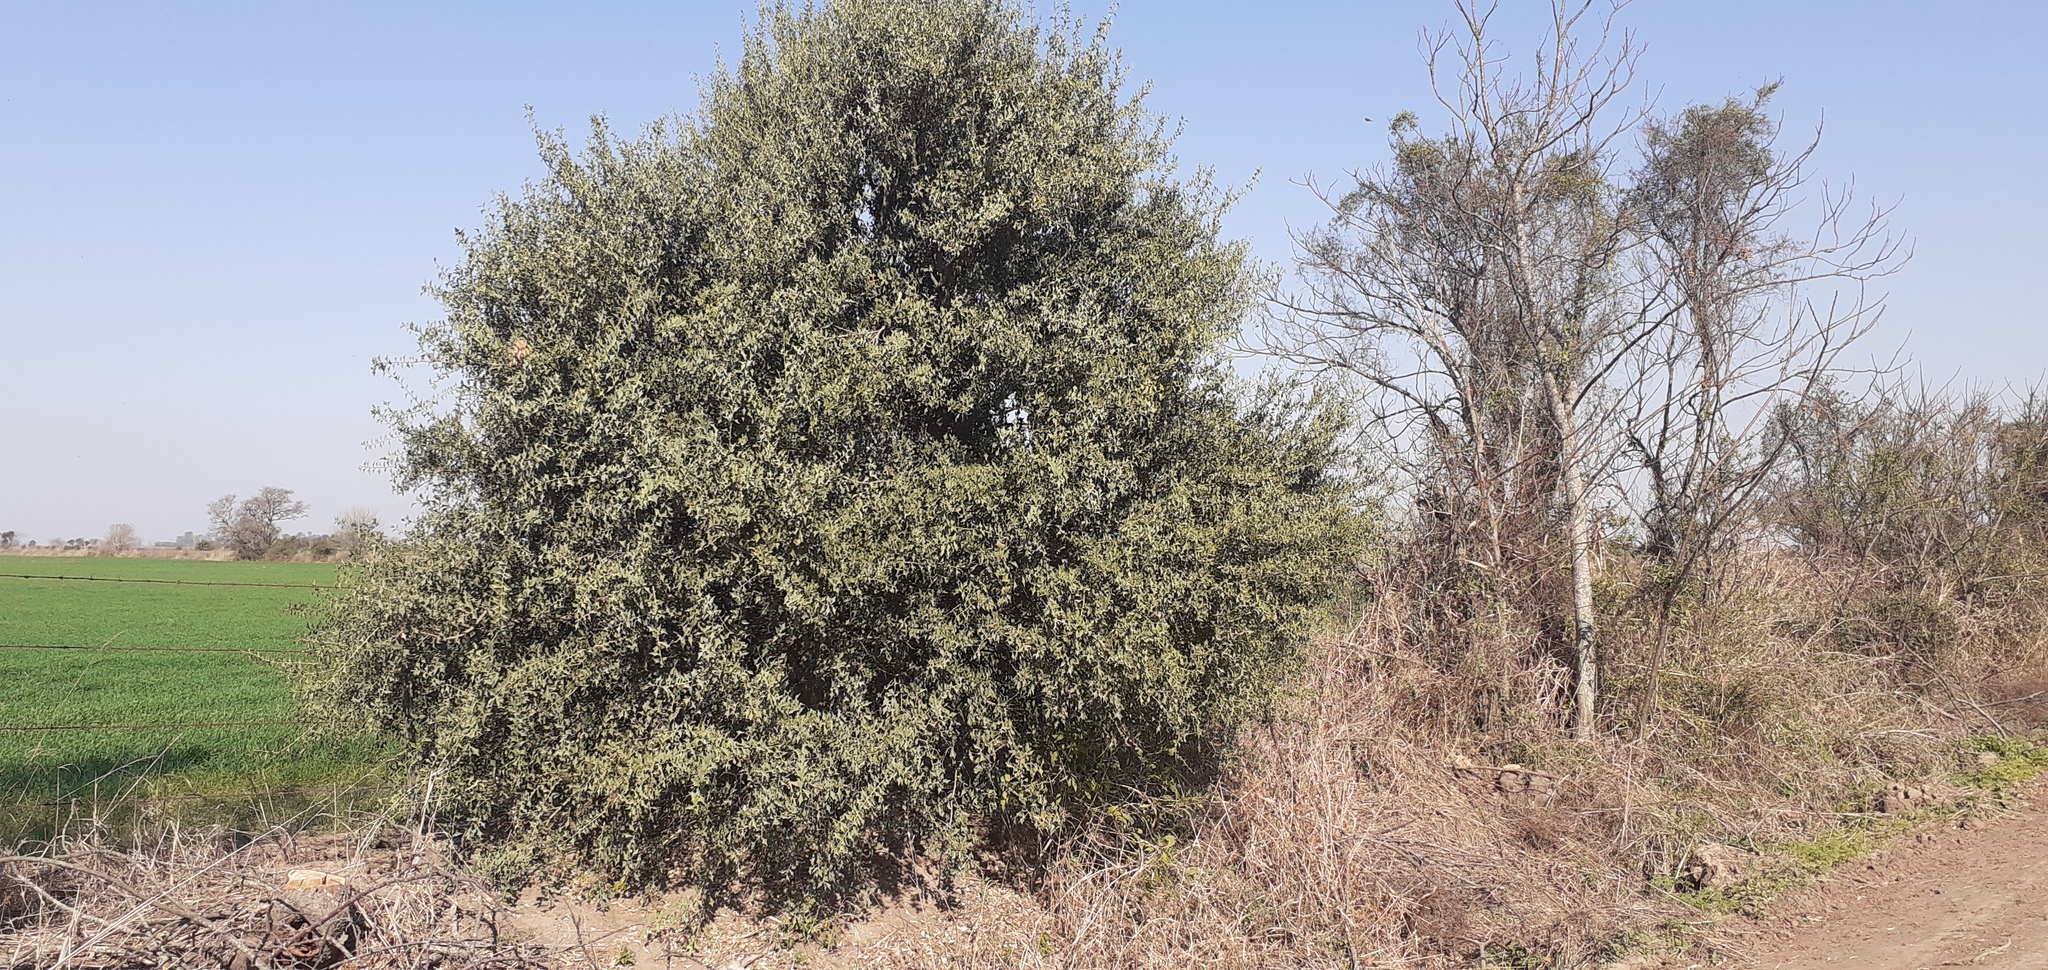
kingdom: Plantae
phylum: Tracheophyta
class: Magnoliopsida
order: Santalales
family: Cervantesiaceae
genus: Jodina
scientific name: Jodina rhombifolia
